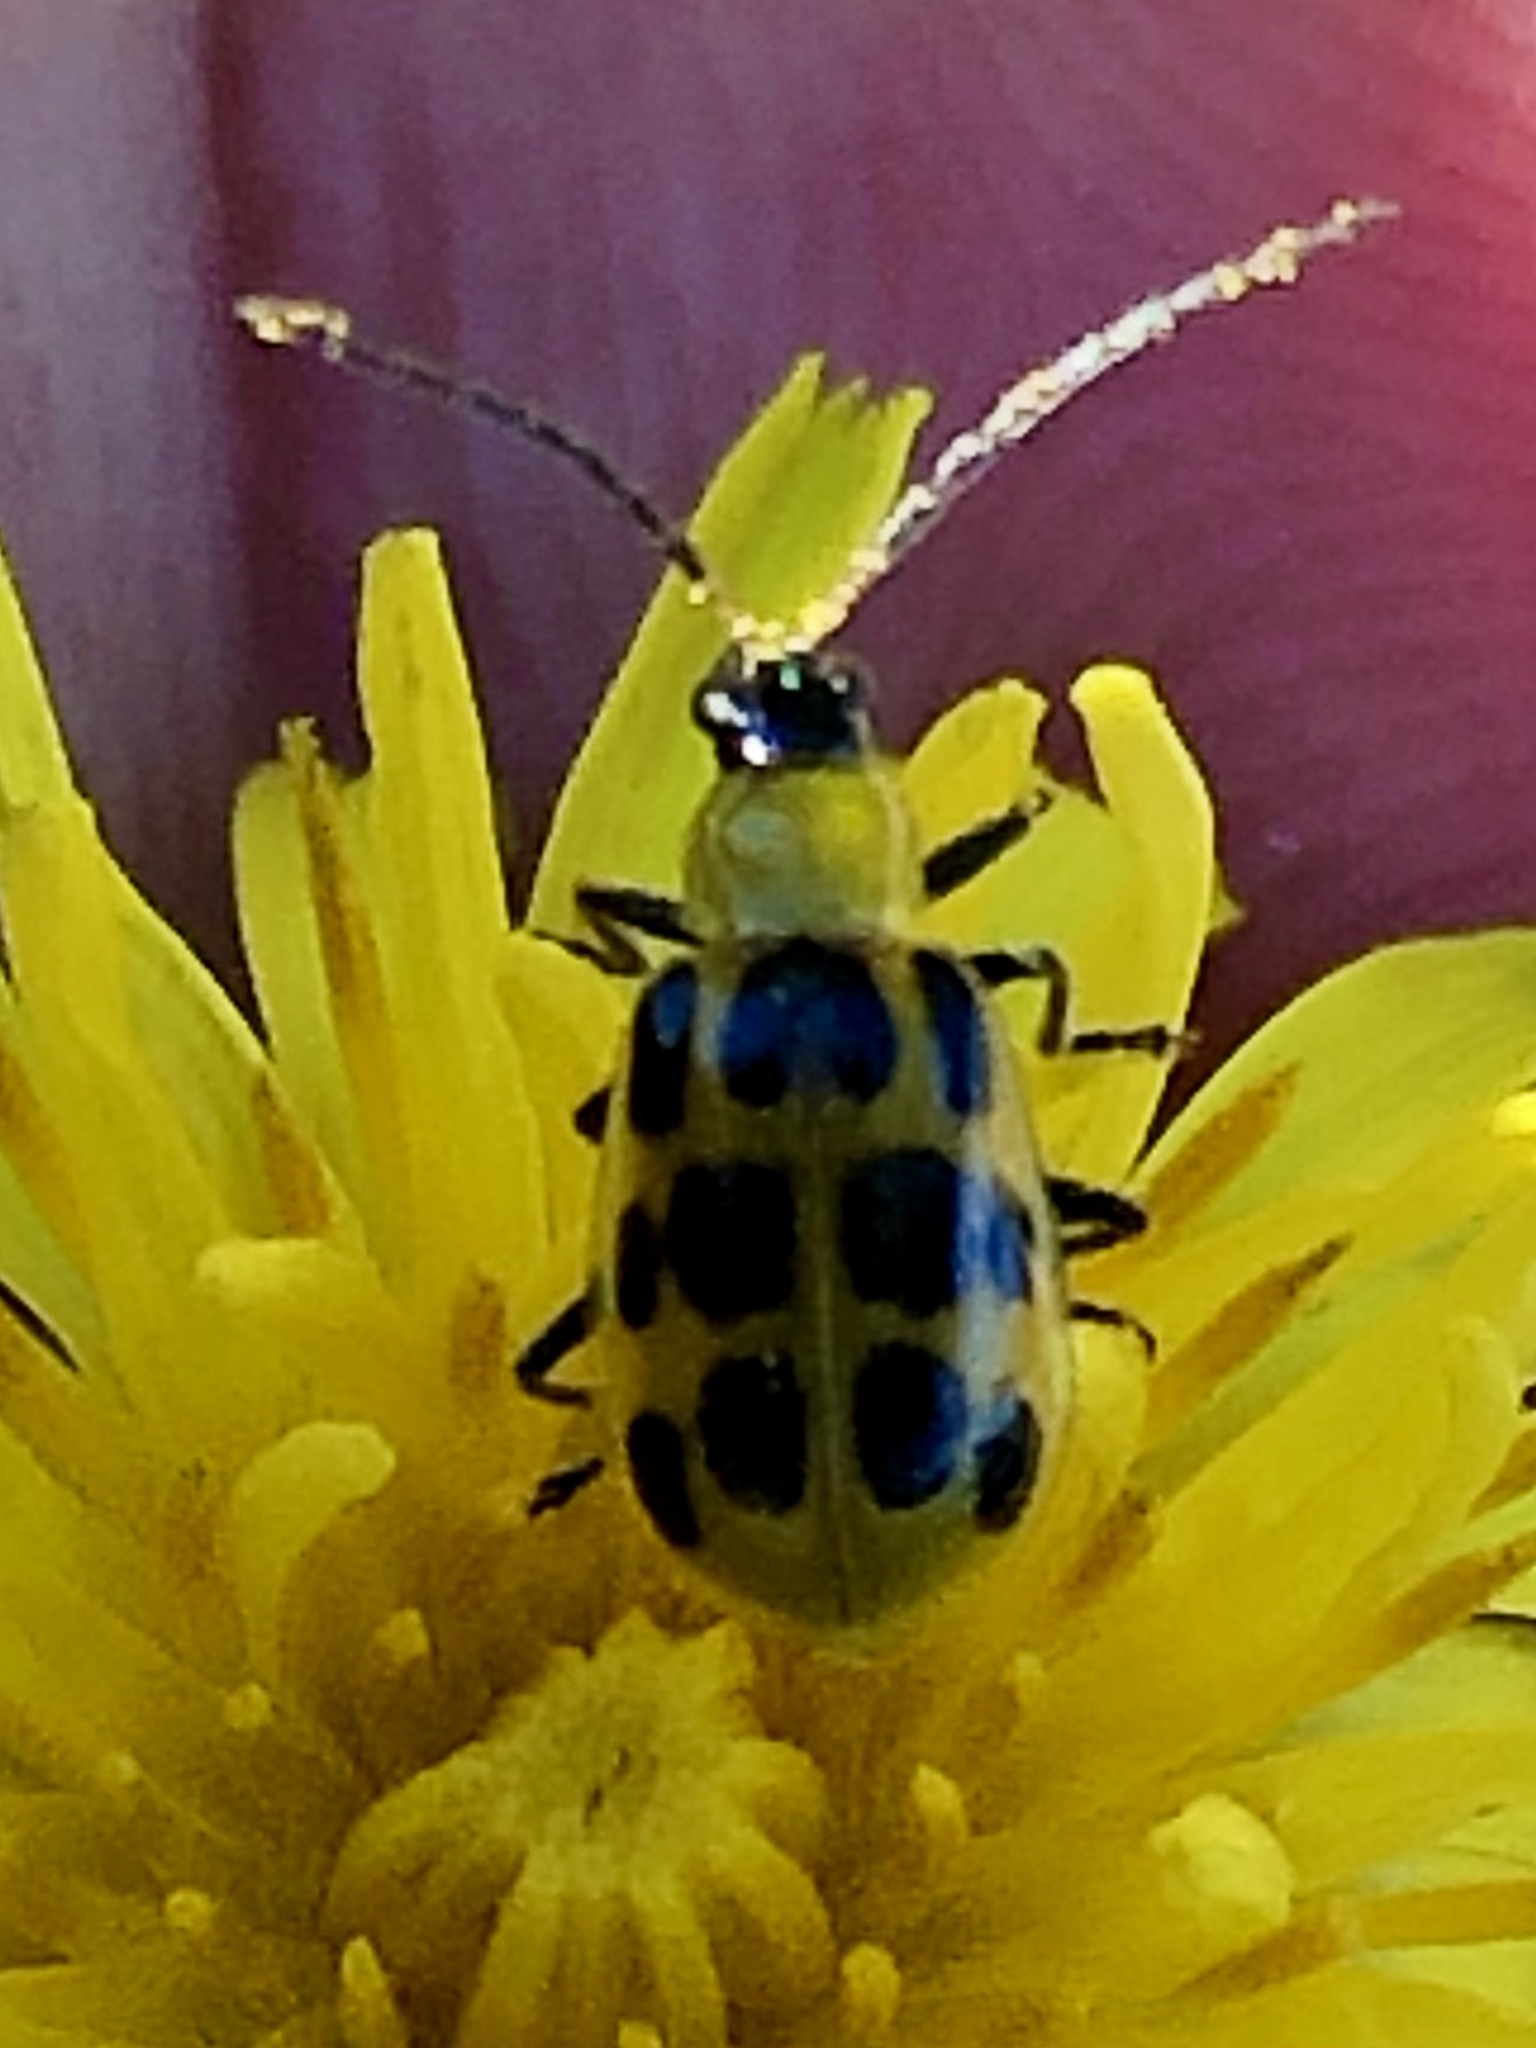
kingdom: Animalia
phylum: Arthropoda
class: Insecta
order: Coleoptera
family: Chrysomelidae
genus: Diabrotica
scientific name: Diabrotica undecimpunctata
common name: Spotted cucumber beetle
